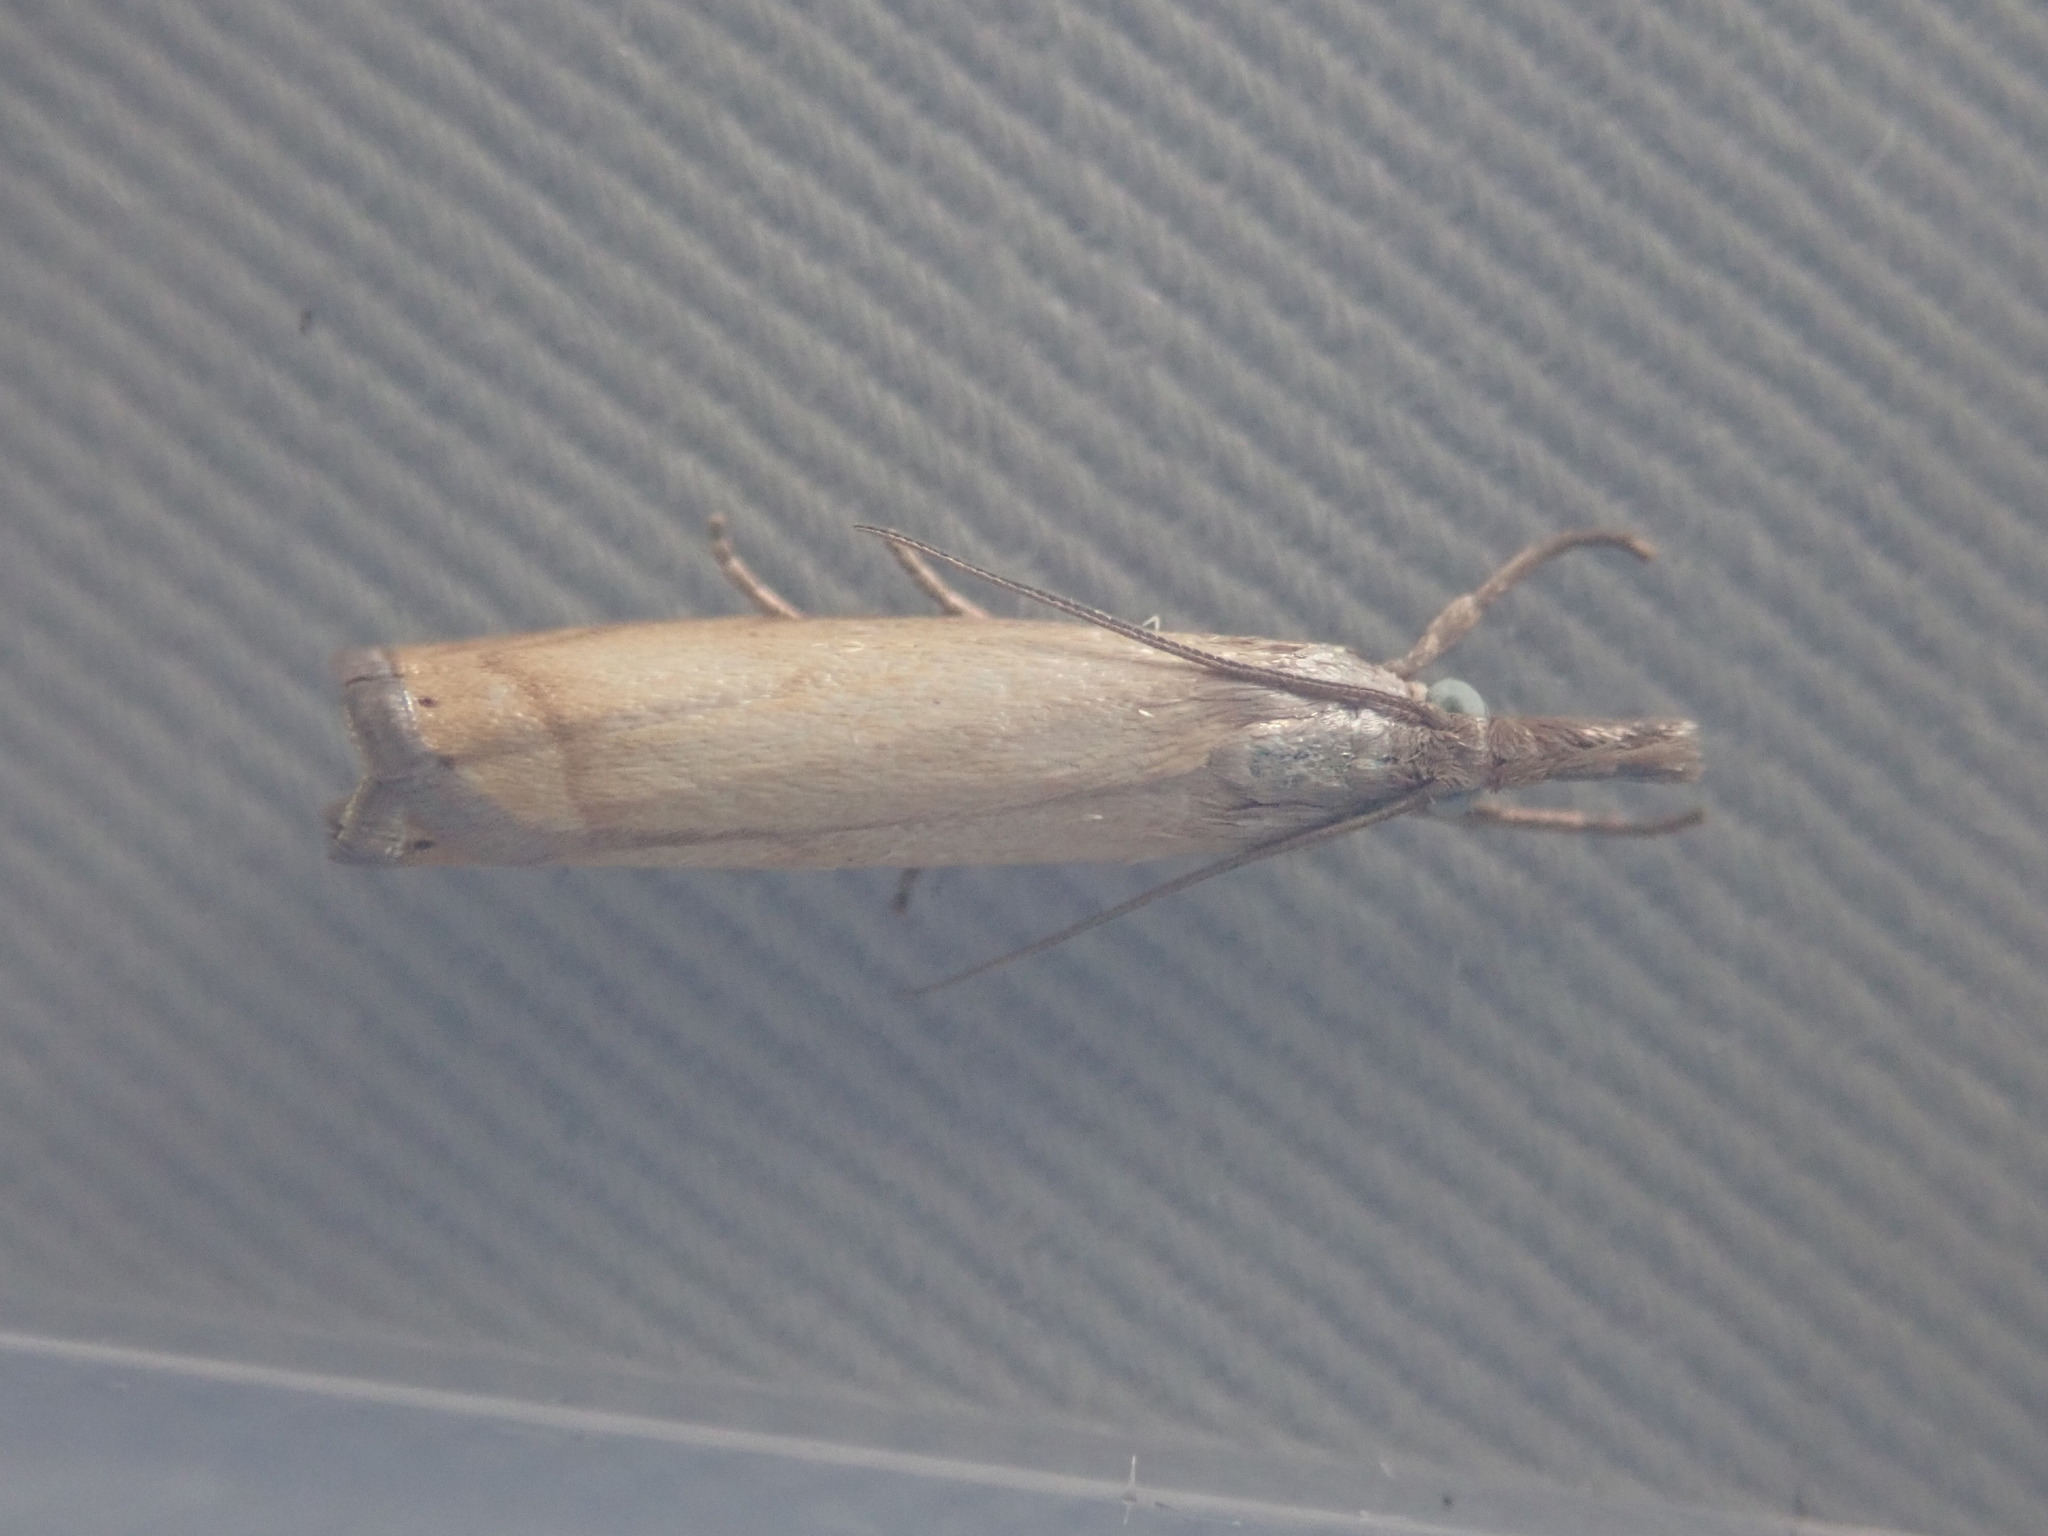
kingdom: Animalia
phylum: Arthropoda
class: Insecta
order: Lepidoptera
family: Crambidae
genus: Chrysoteuchia
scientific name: Chrysoteuchia culmella
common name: Garden grass-veneer
